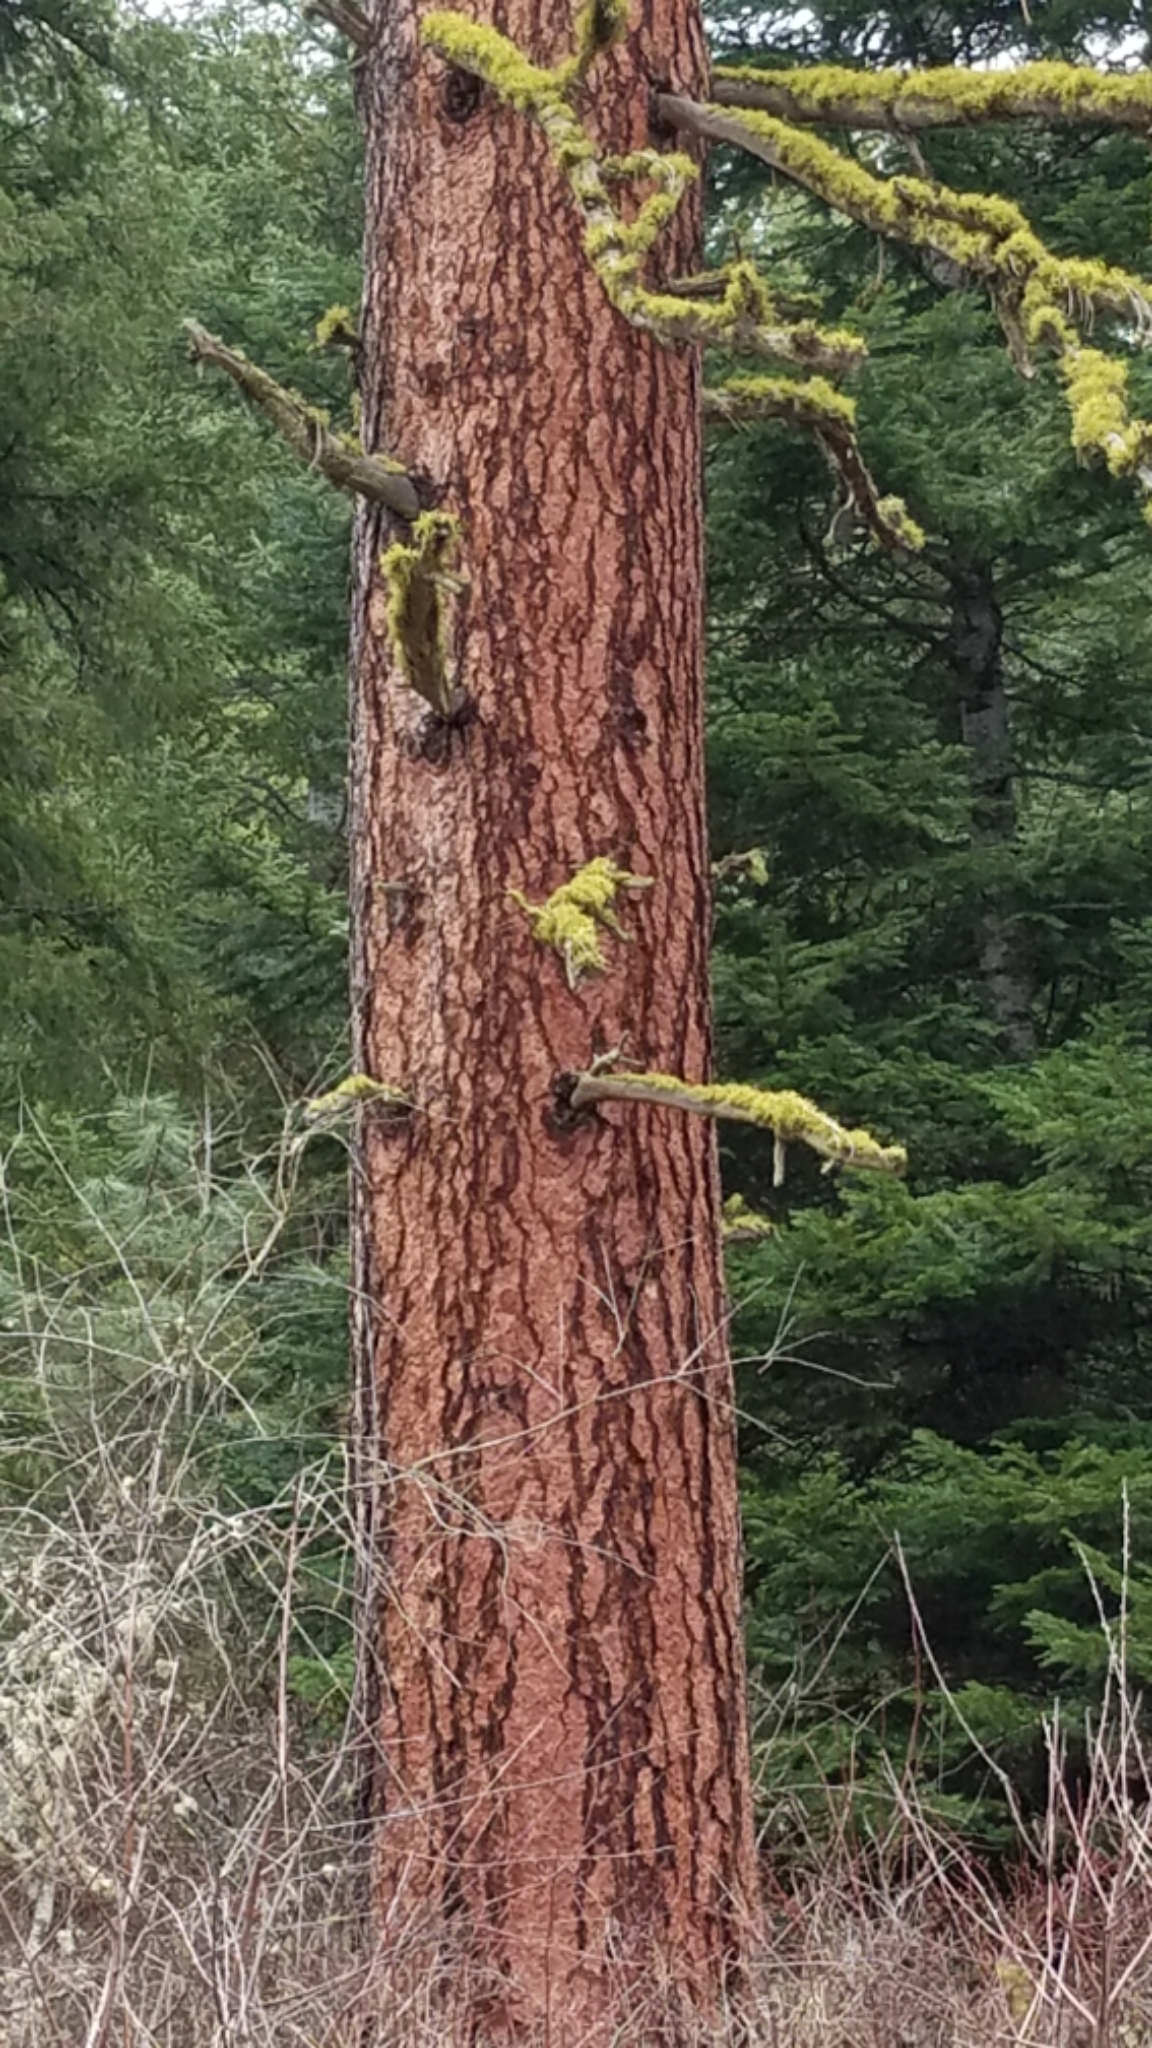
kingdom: Plantae
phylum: Tracheophyta
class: Pinopsida
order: Pinales
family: Pinaceae
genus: Pinus
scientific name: Pinus ponderosa
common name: Western yellow-pine
